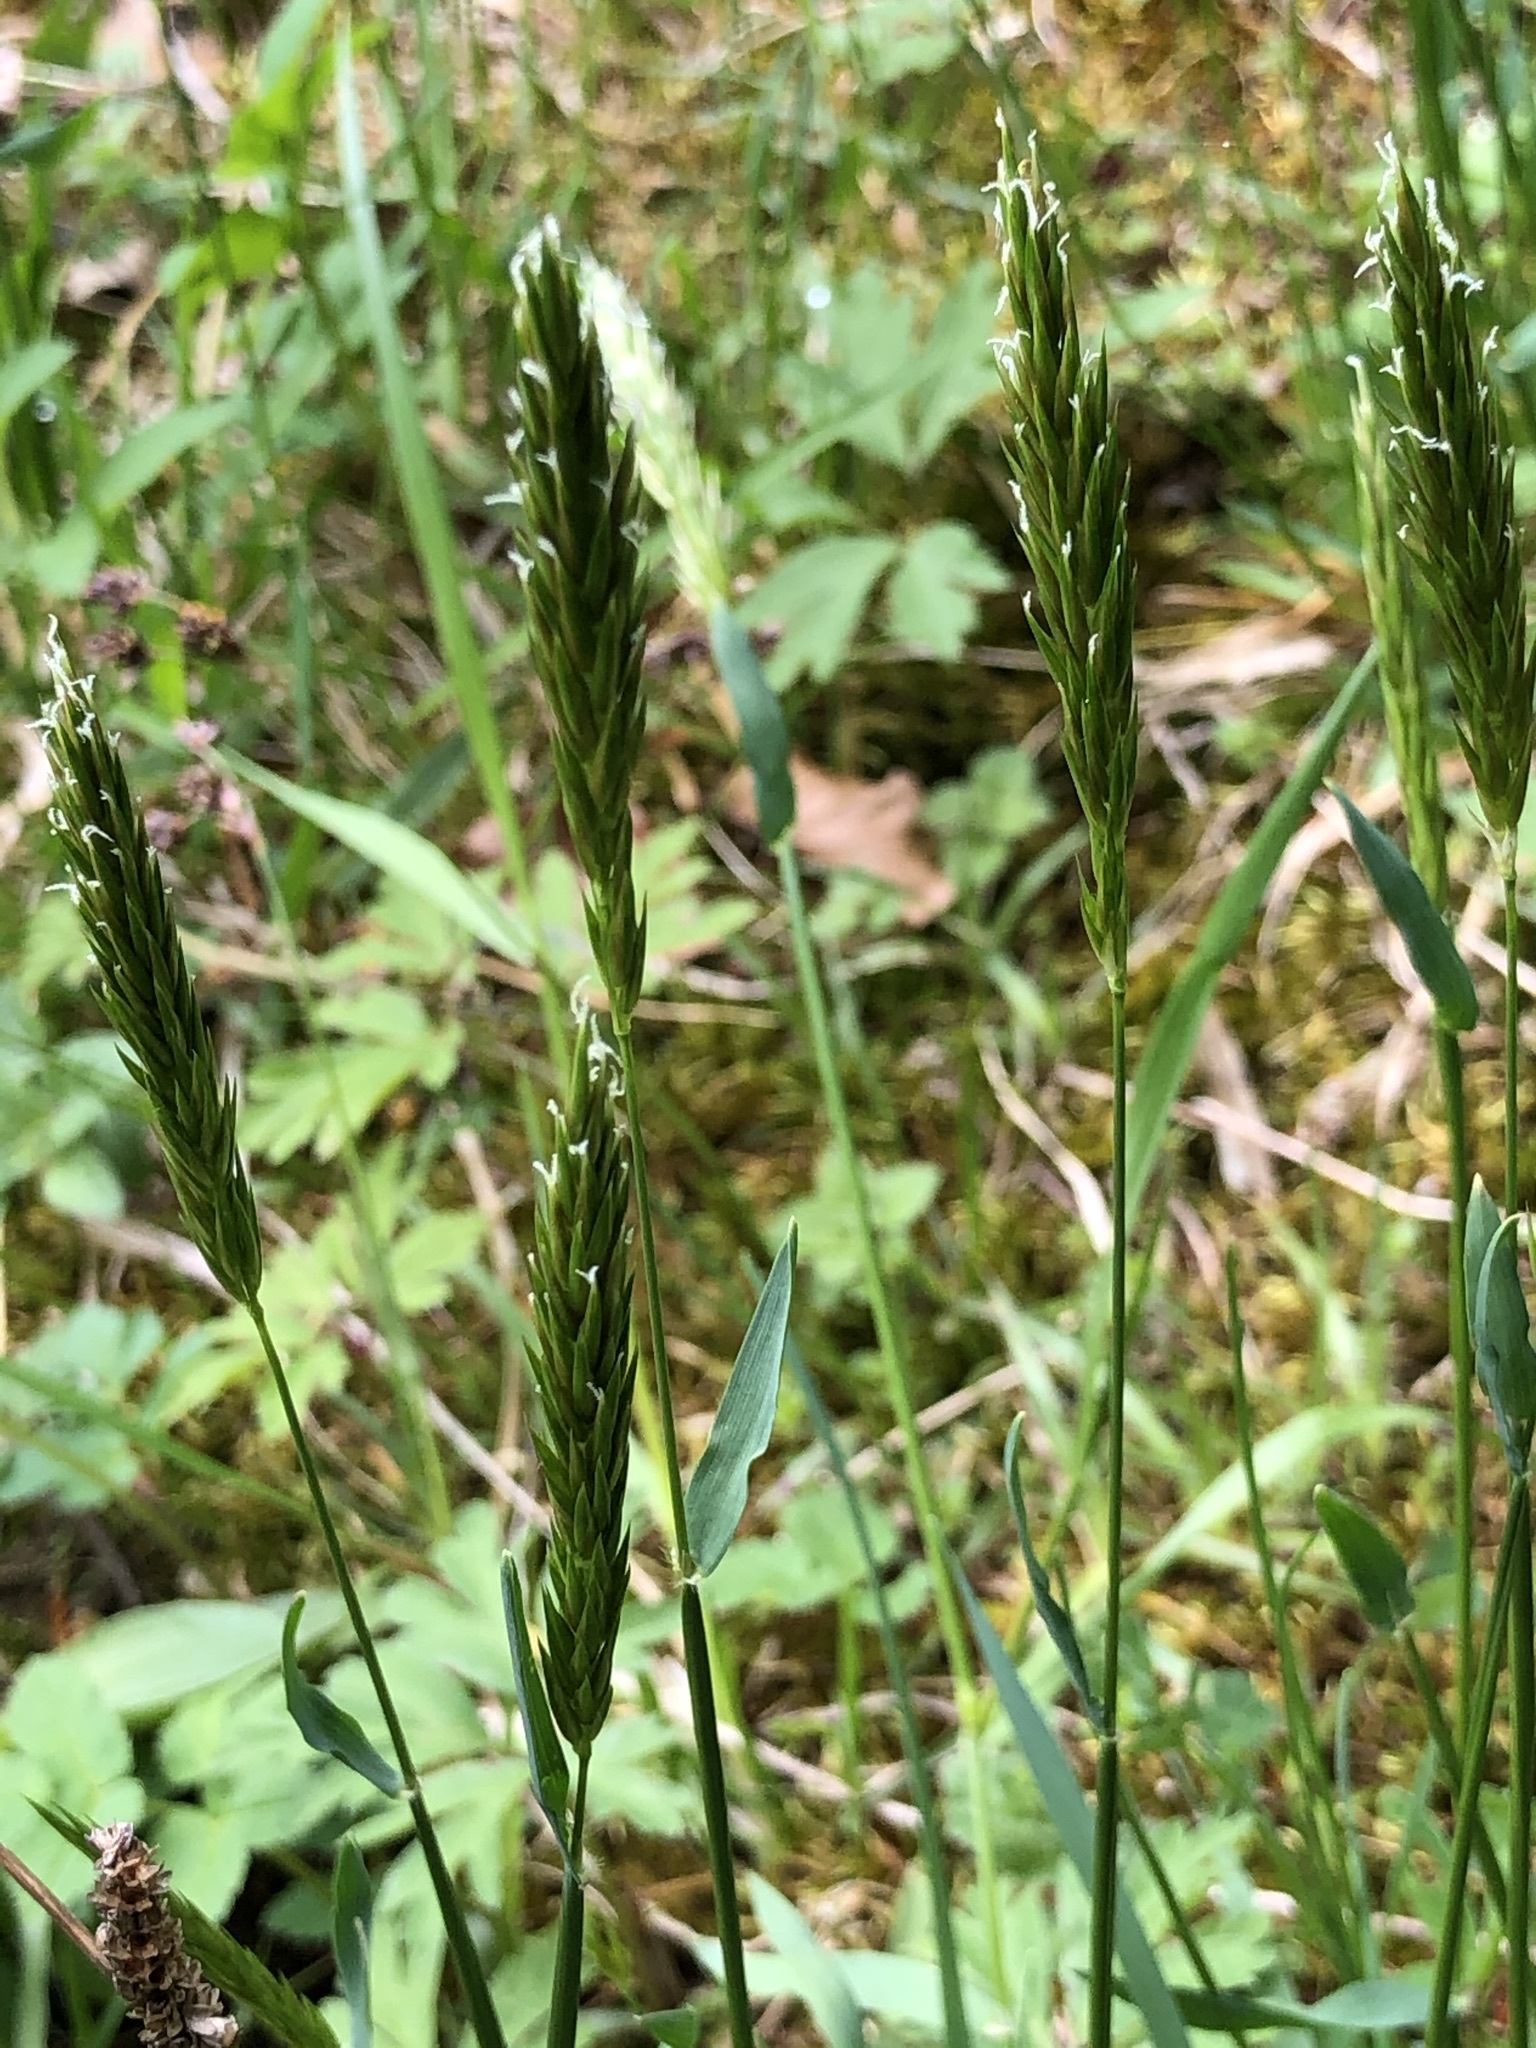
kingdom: Plantae
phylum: Tracheophyta
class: Liliopsida
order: Poales
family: Poaceae
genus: Anthoxanthum
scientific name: Anthoxanthum odoratum
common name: Sweet vernalgrass
